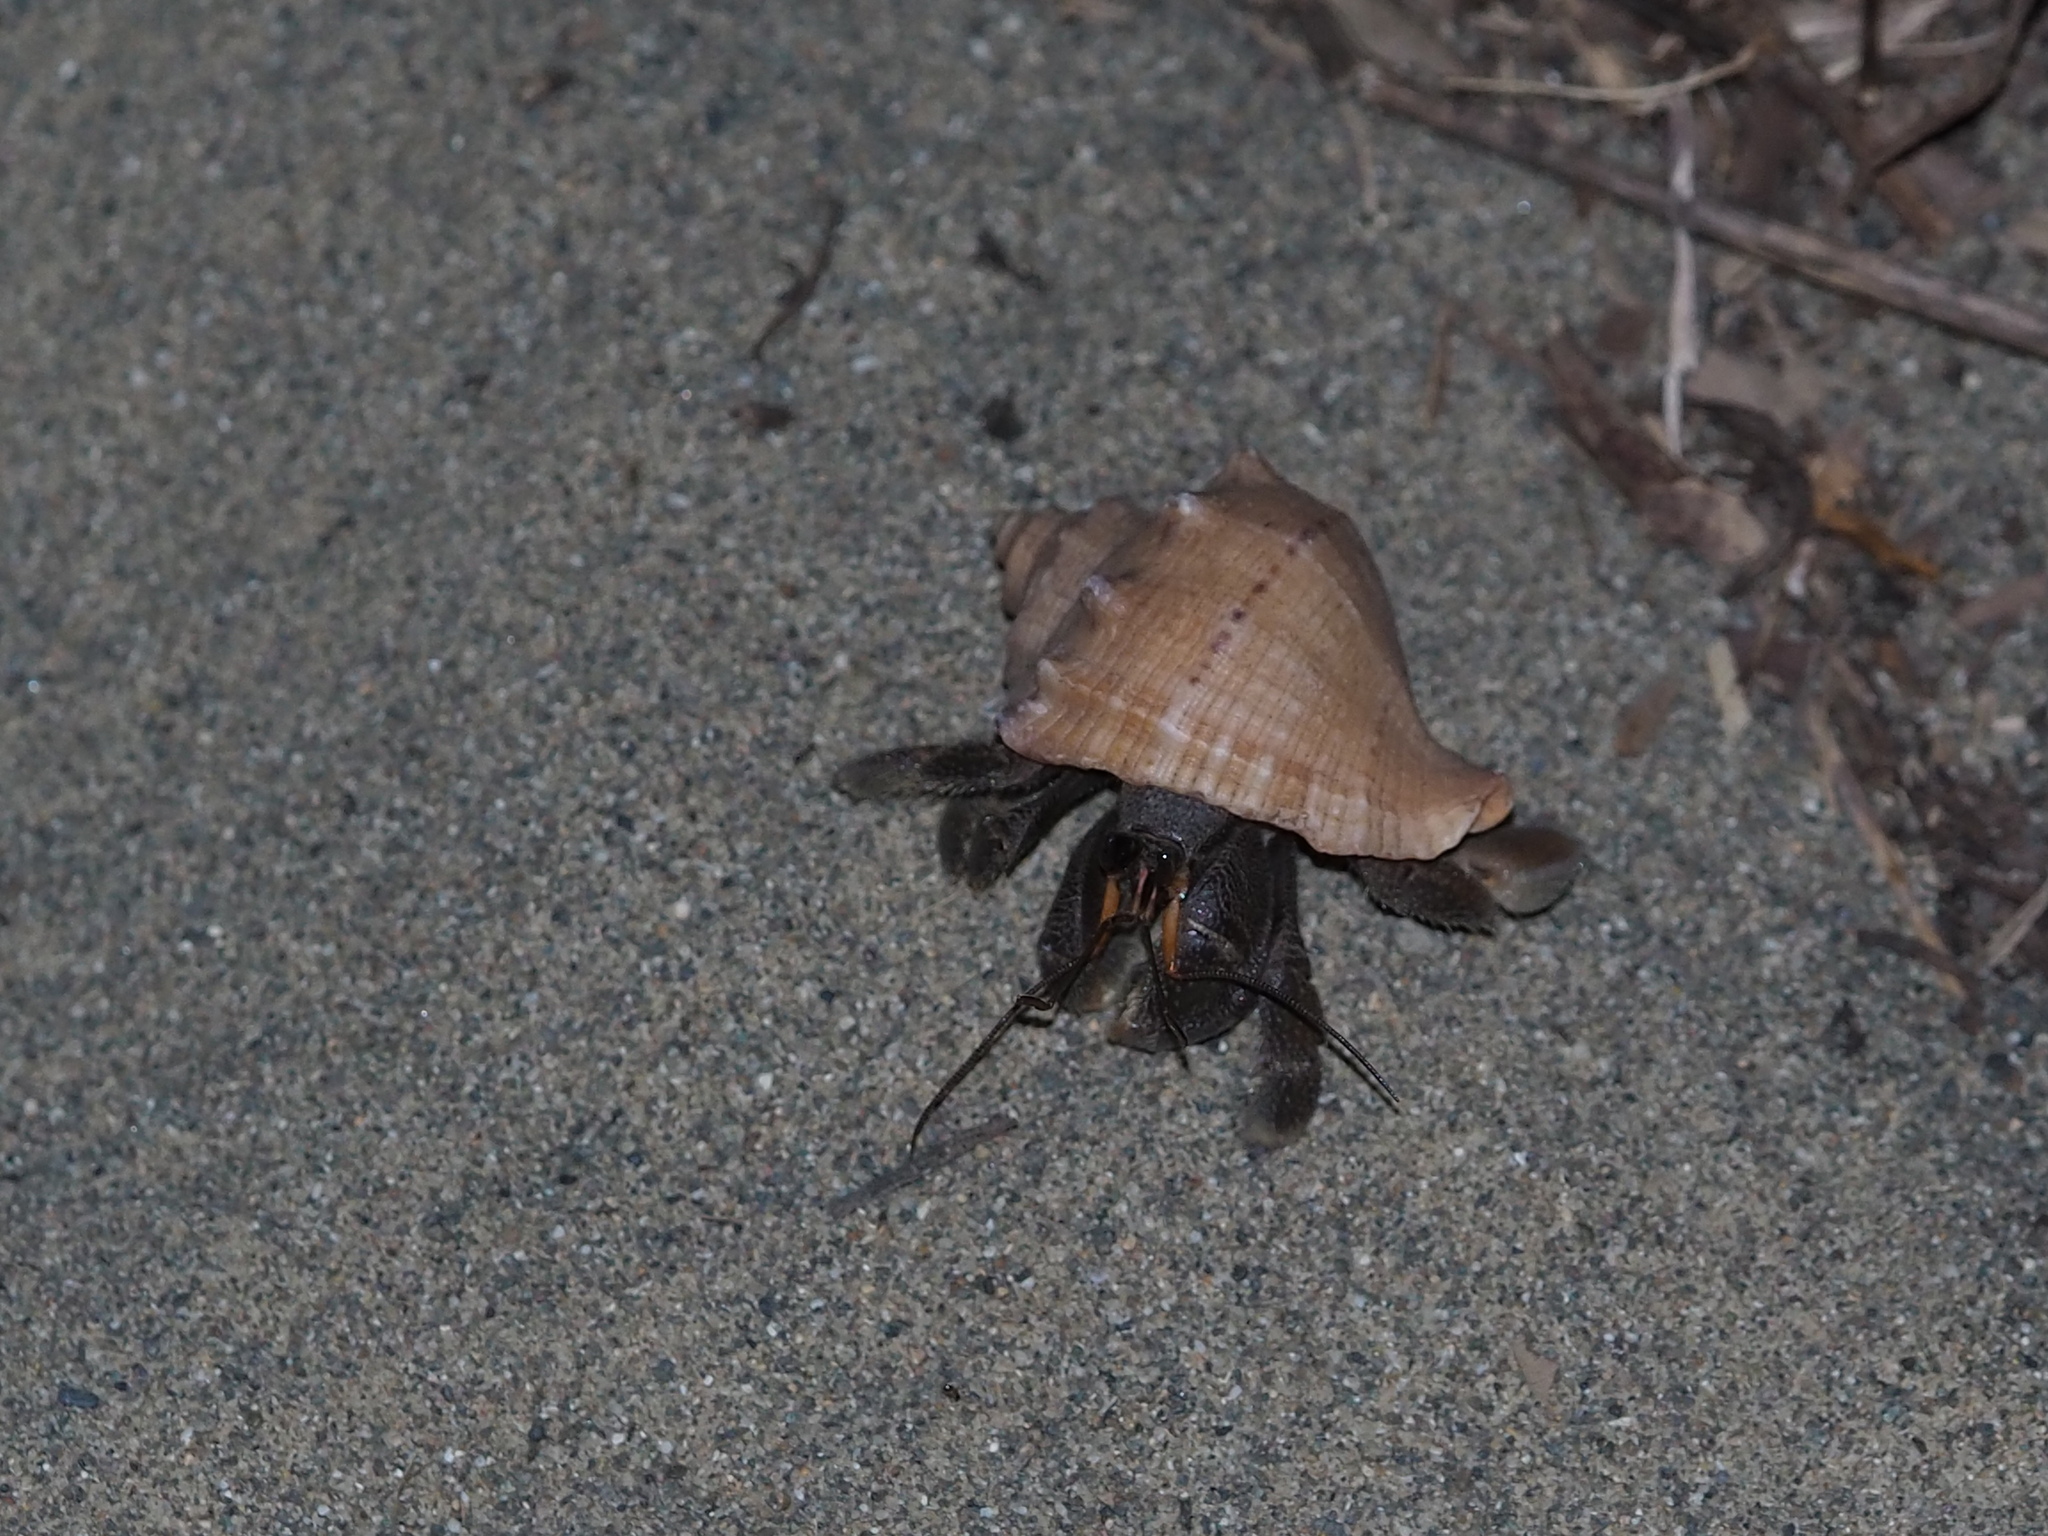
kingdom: Animalia
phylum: Arthropoda
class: Malacostraca
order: Decapoda
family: Coenobitidae
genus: Coenobita
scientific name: Coenobita cavipes
